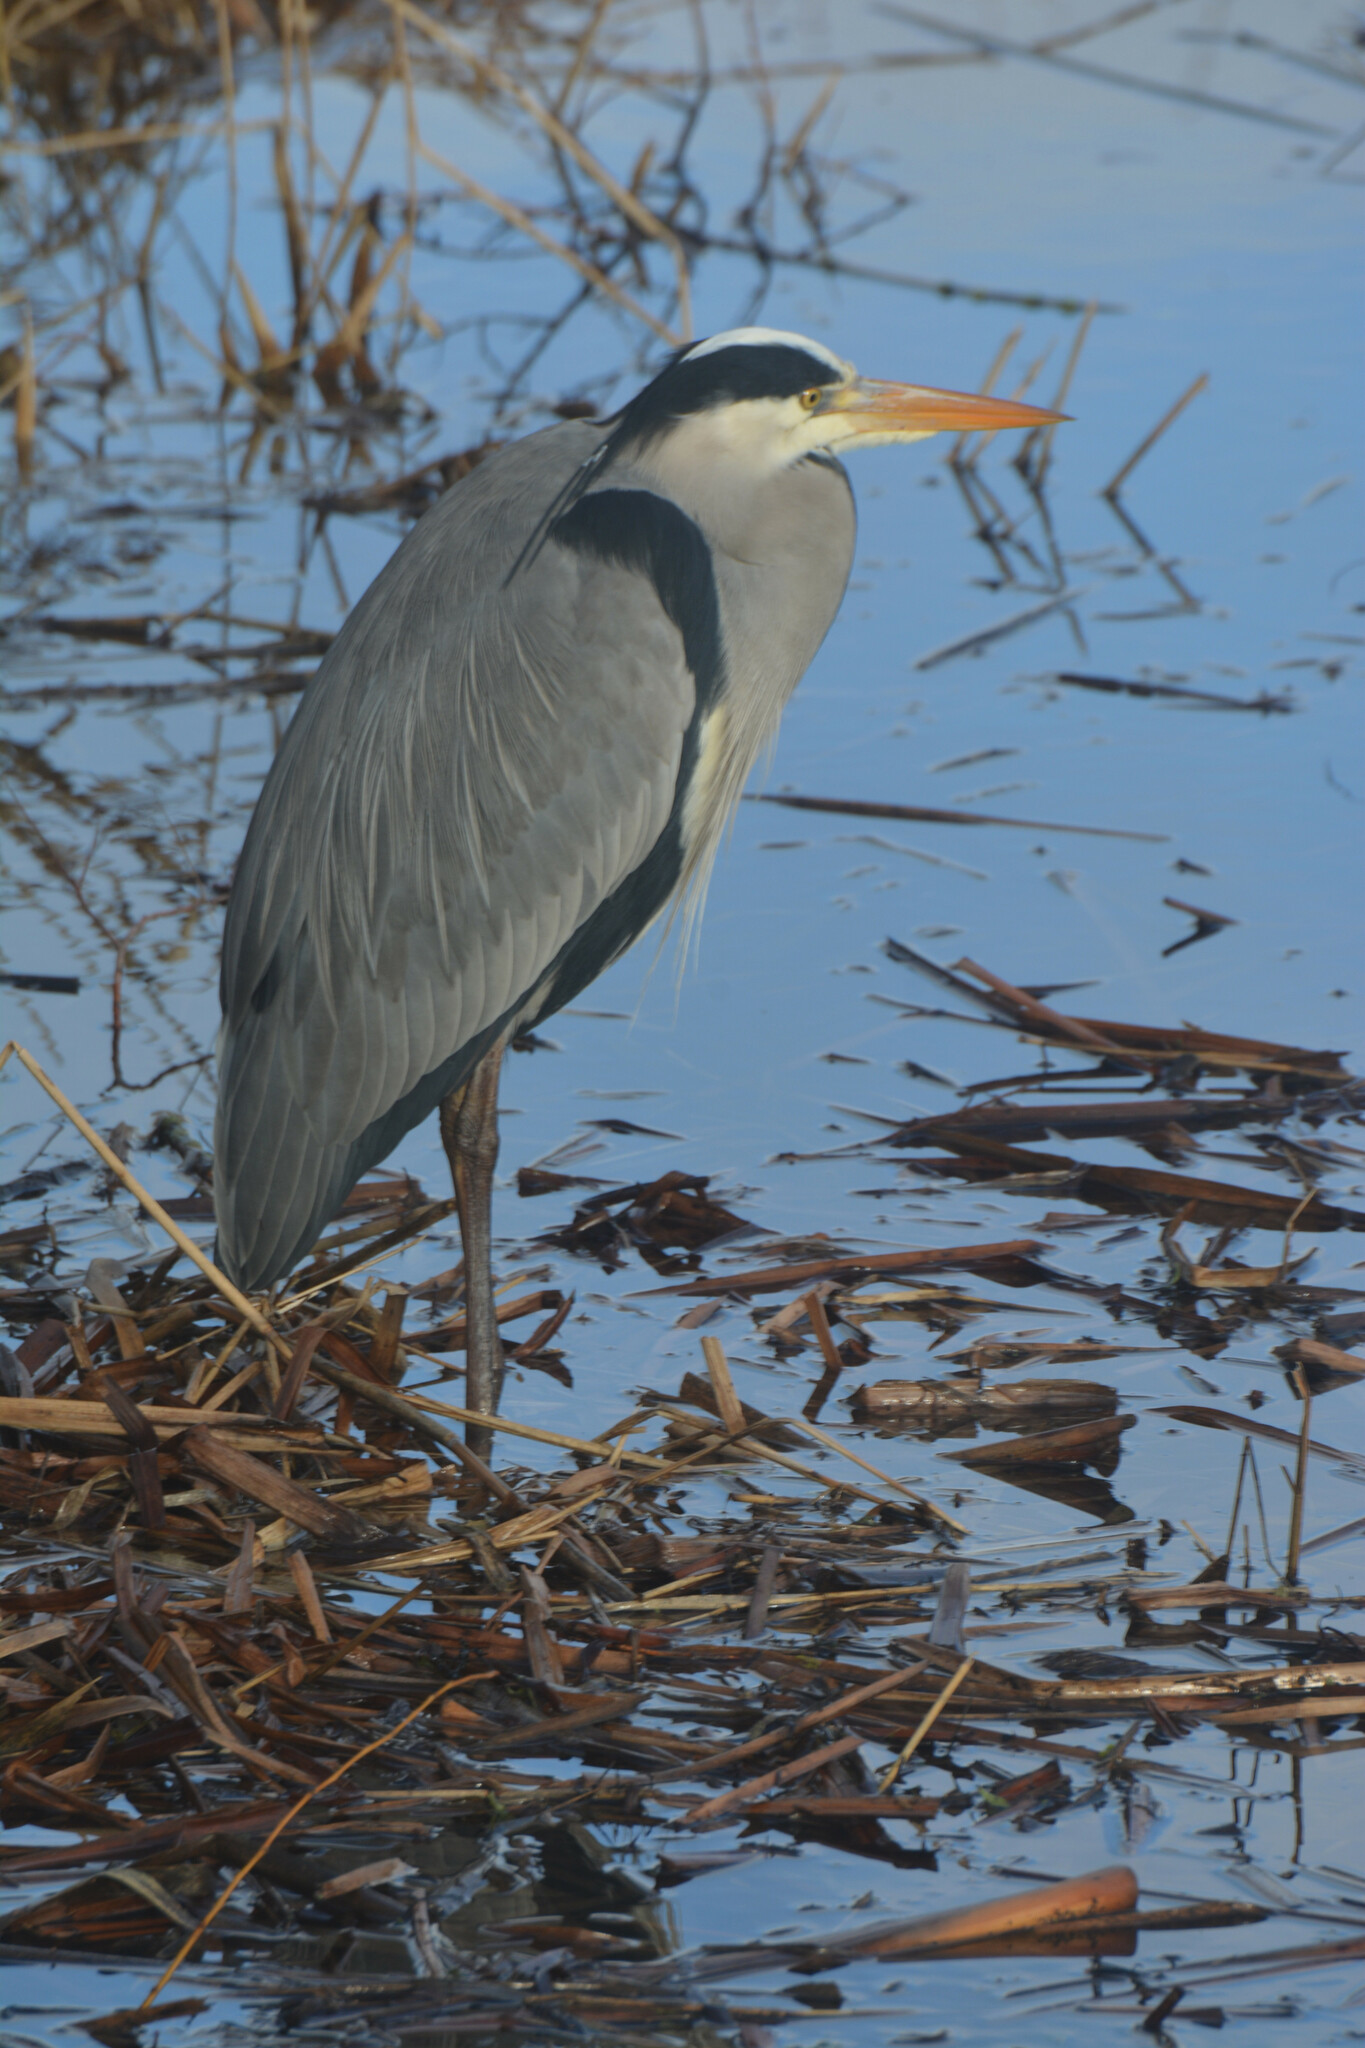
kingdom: Animalia
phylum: Chordata
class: Aves
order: Pelecaniformes
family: Ardeidae
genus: Ardea
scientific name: Ardea cinerea
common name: Grey heron
